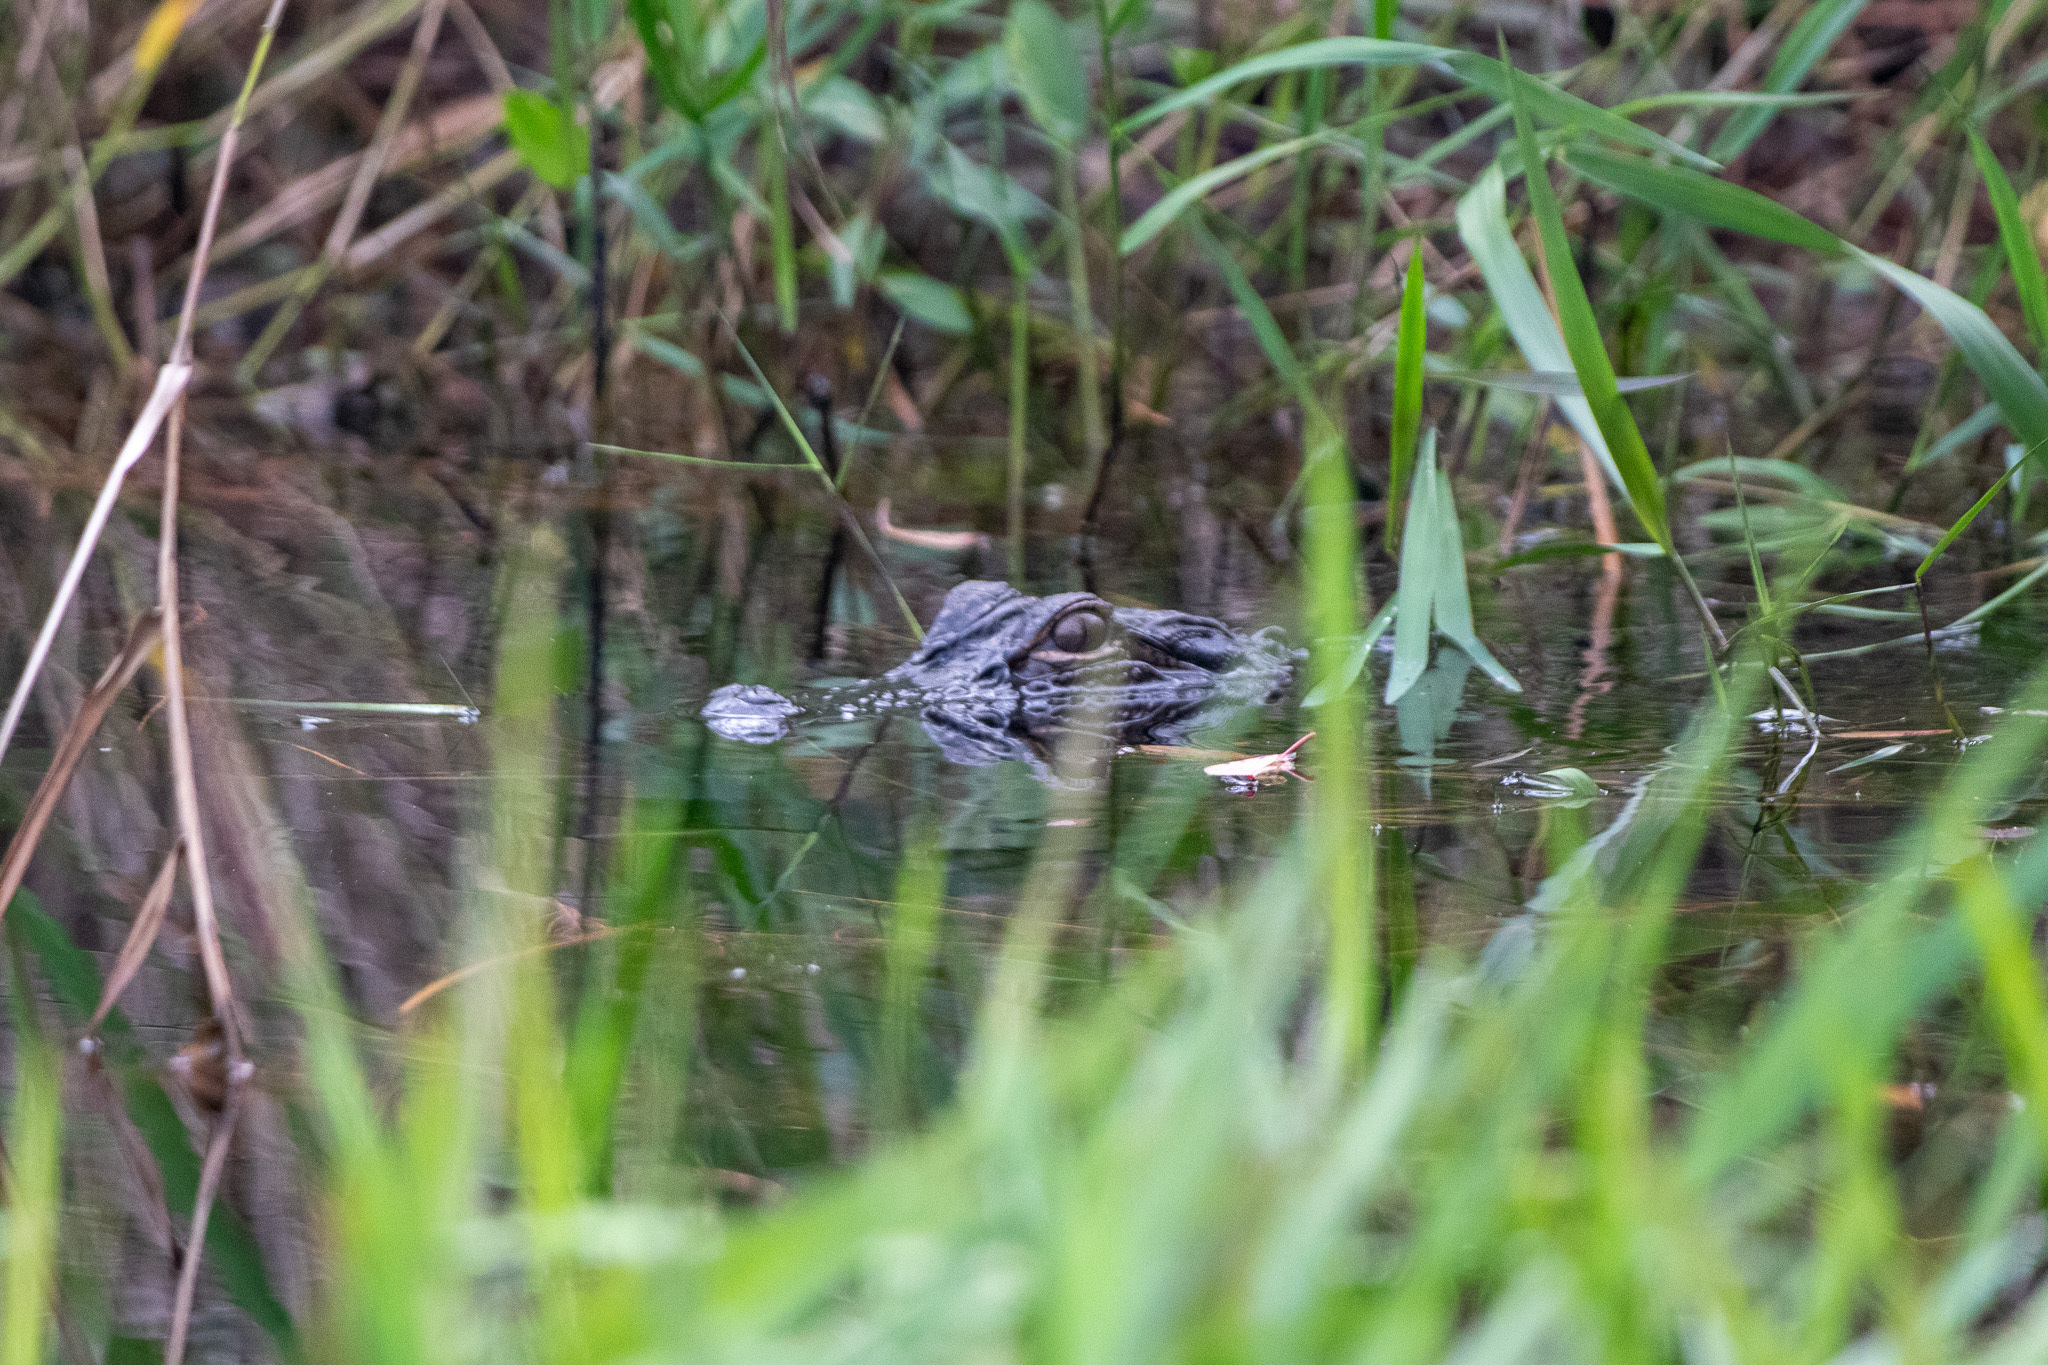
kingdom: Animalia
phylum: Chordata
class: Crocodylia
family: Alligatoridae
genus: Alligator
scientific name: Alligator mississippiensis
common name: American alligator
